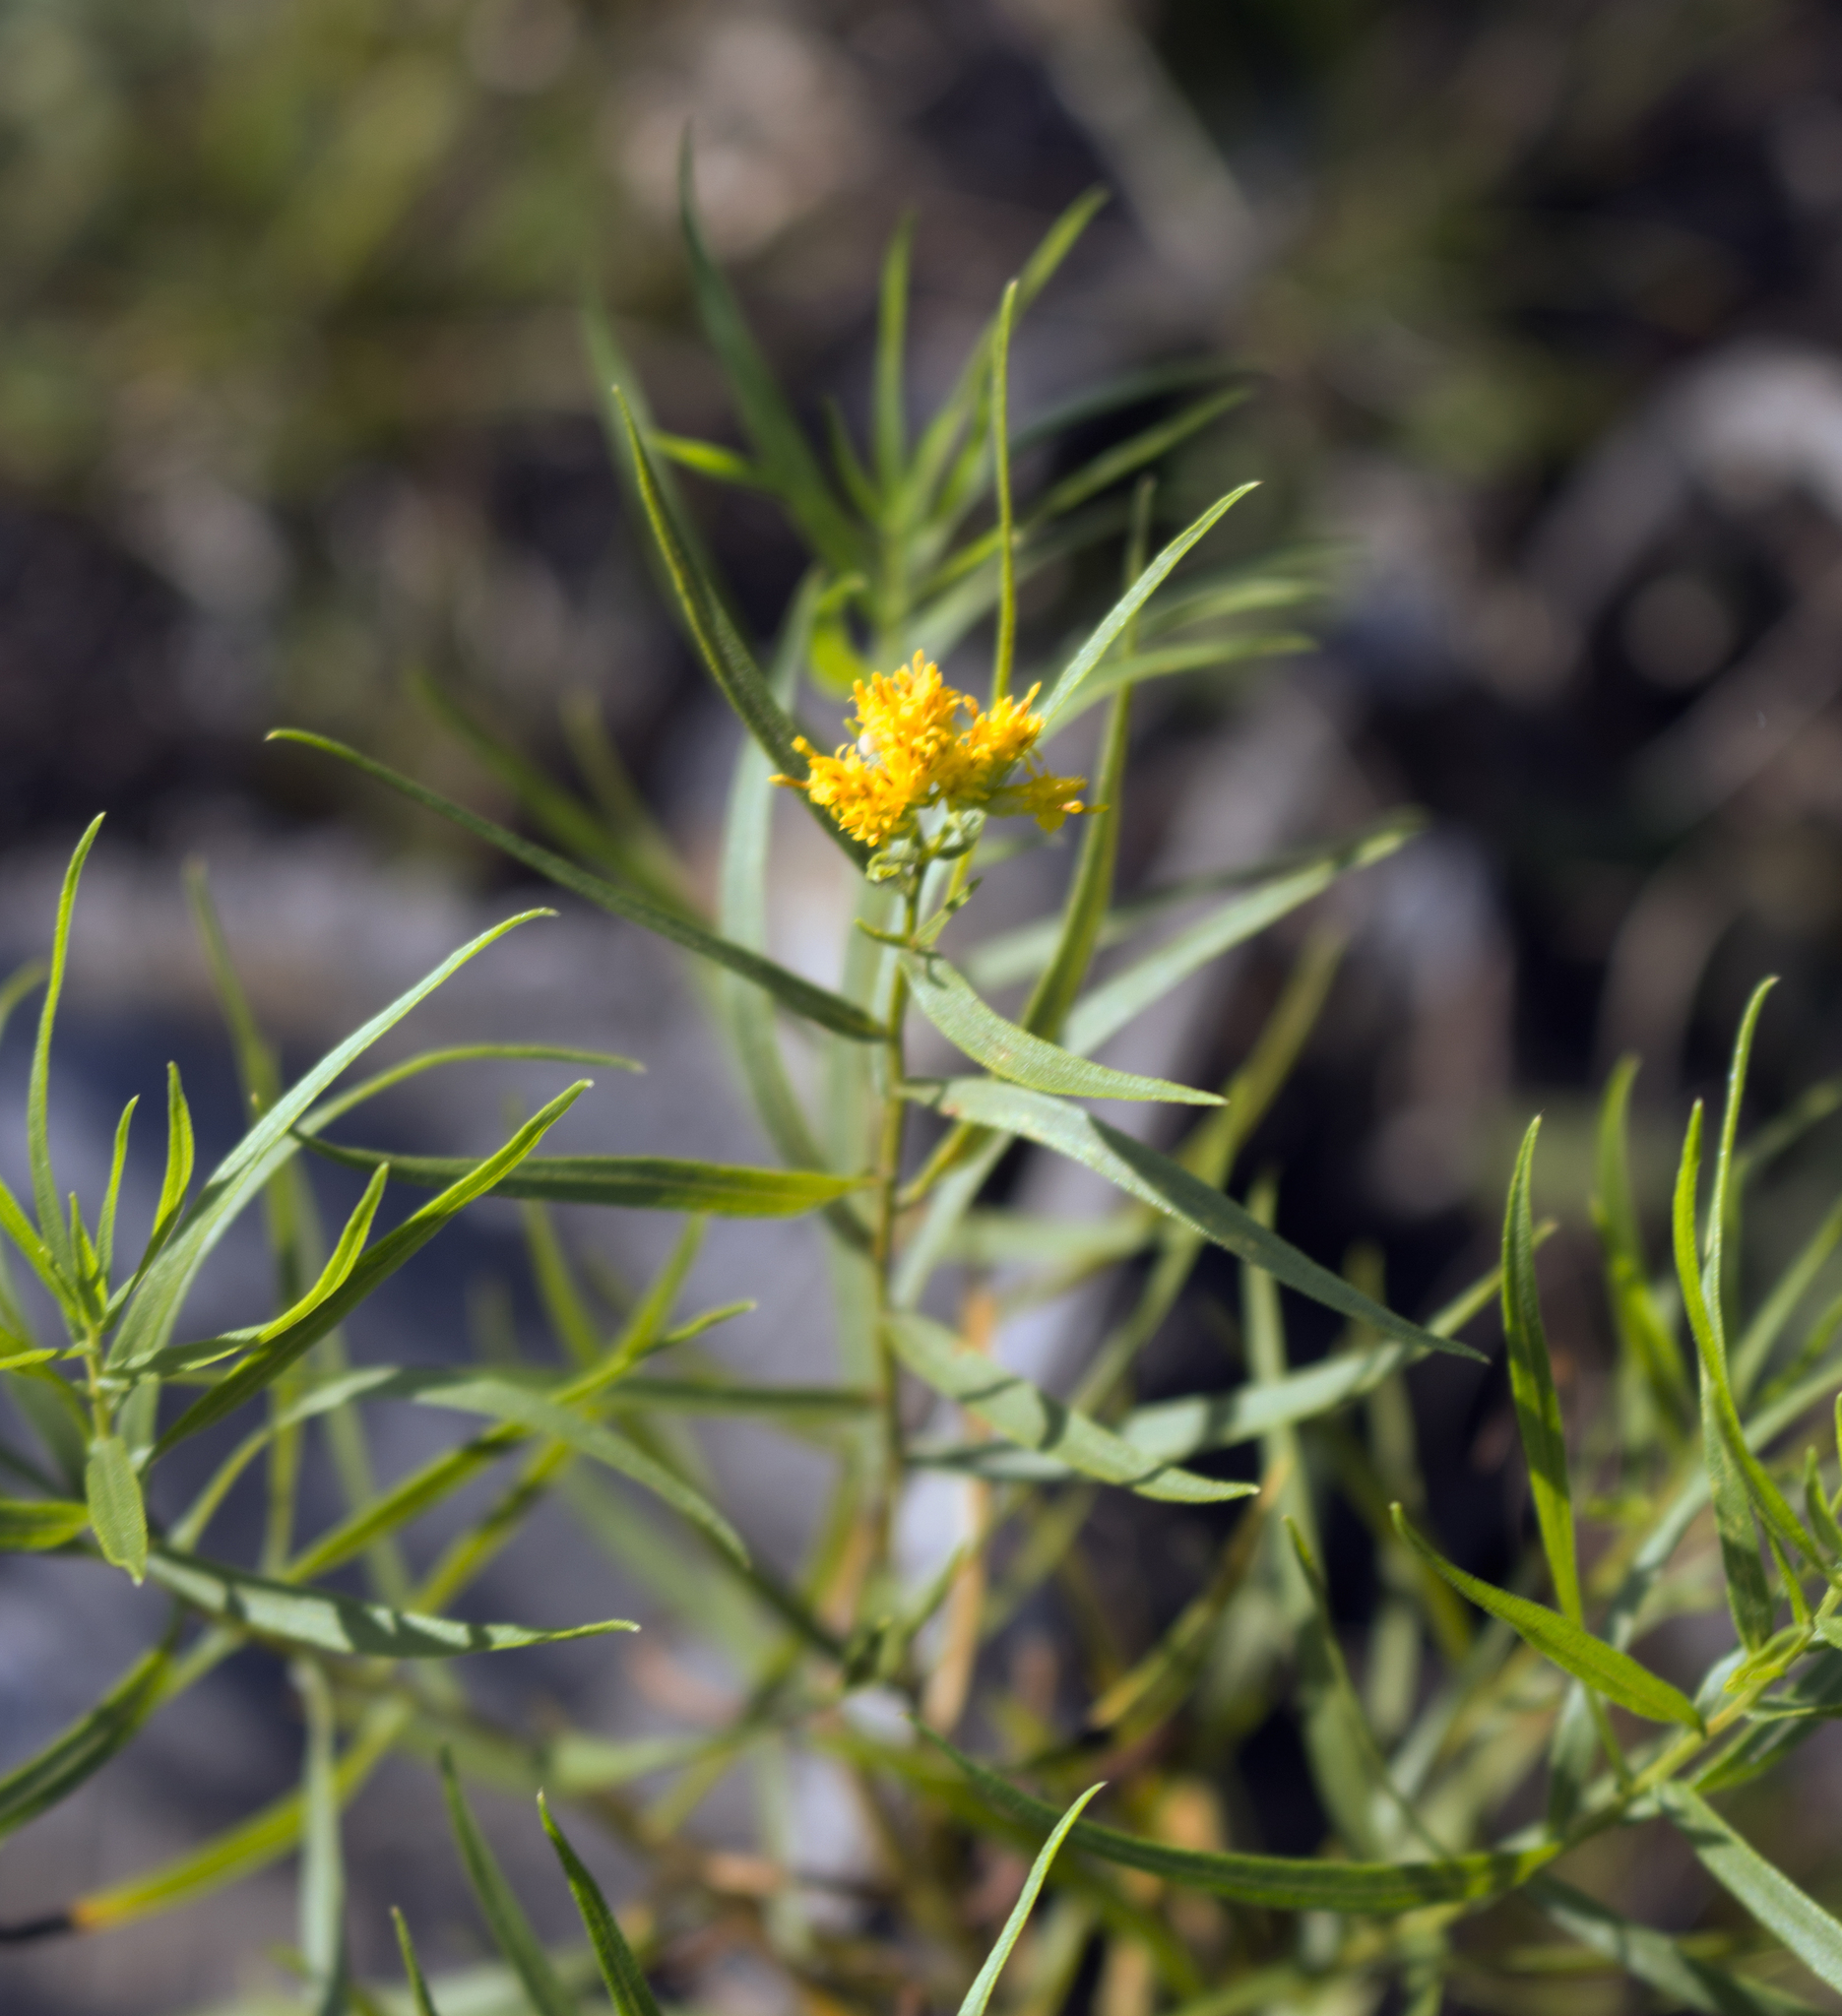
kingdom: Plantae
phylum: Tracheophyta
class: Magnoliopsida
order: Asterales
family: Asteraceae
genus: Euthamia
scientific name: Euthamia graminifolia
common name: Common goldentop
